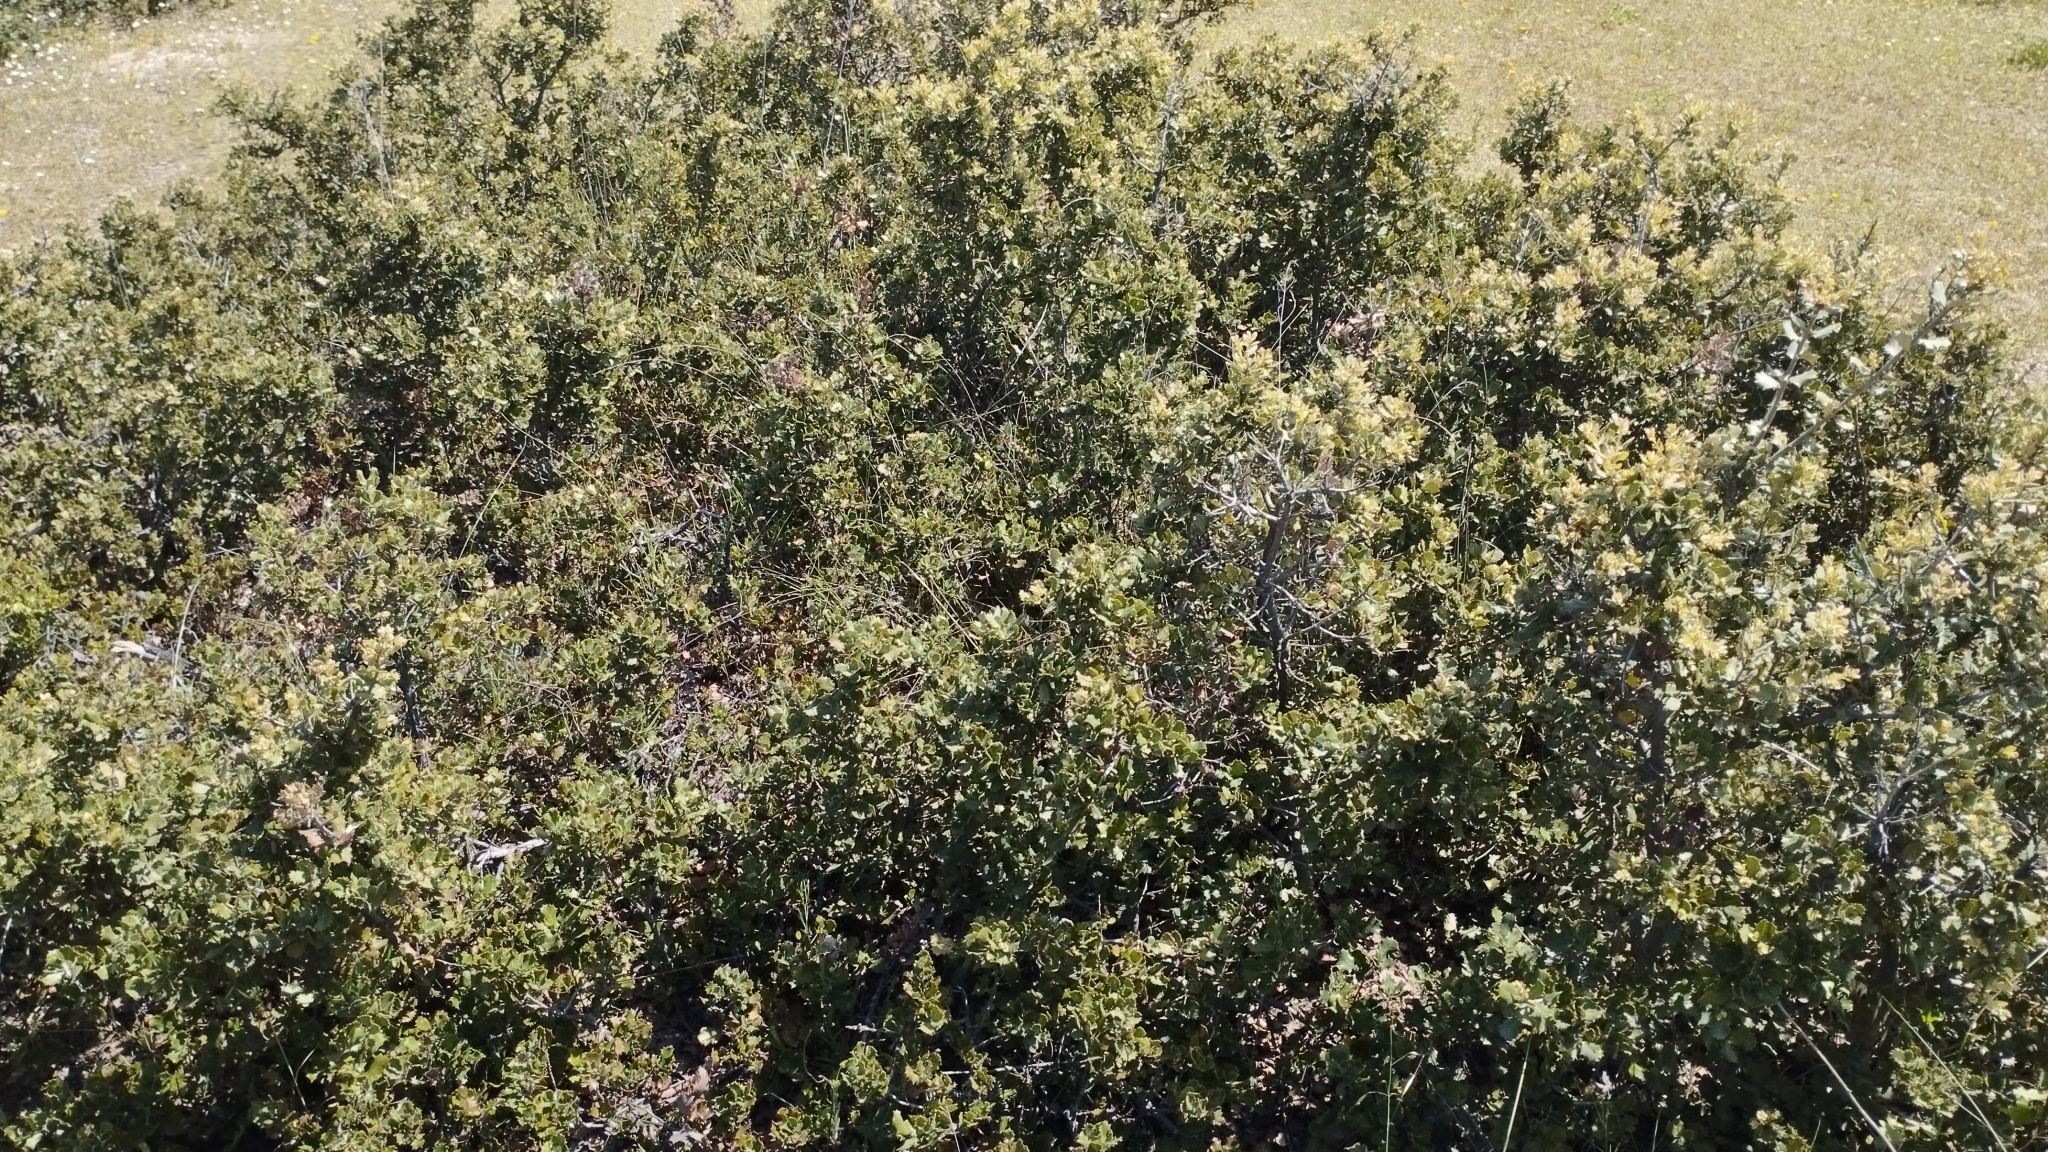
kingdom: Plantae
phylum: Tracheophyta
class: Magnoliopsida
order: Fagales
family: Fagaceae
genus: Quercus
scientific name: Quercus rotundifolia
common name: Holm oak
